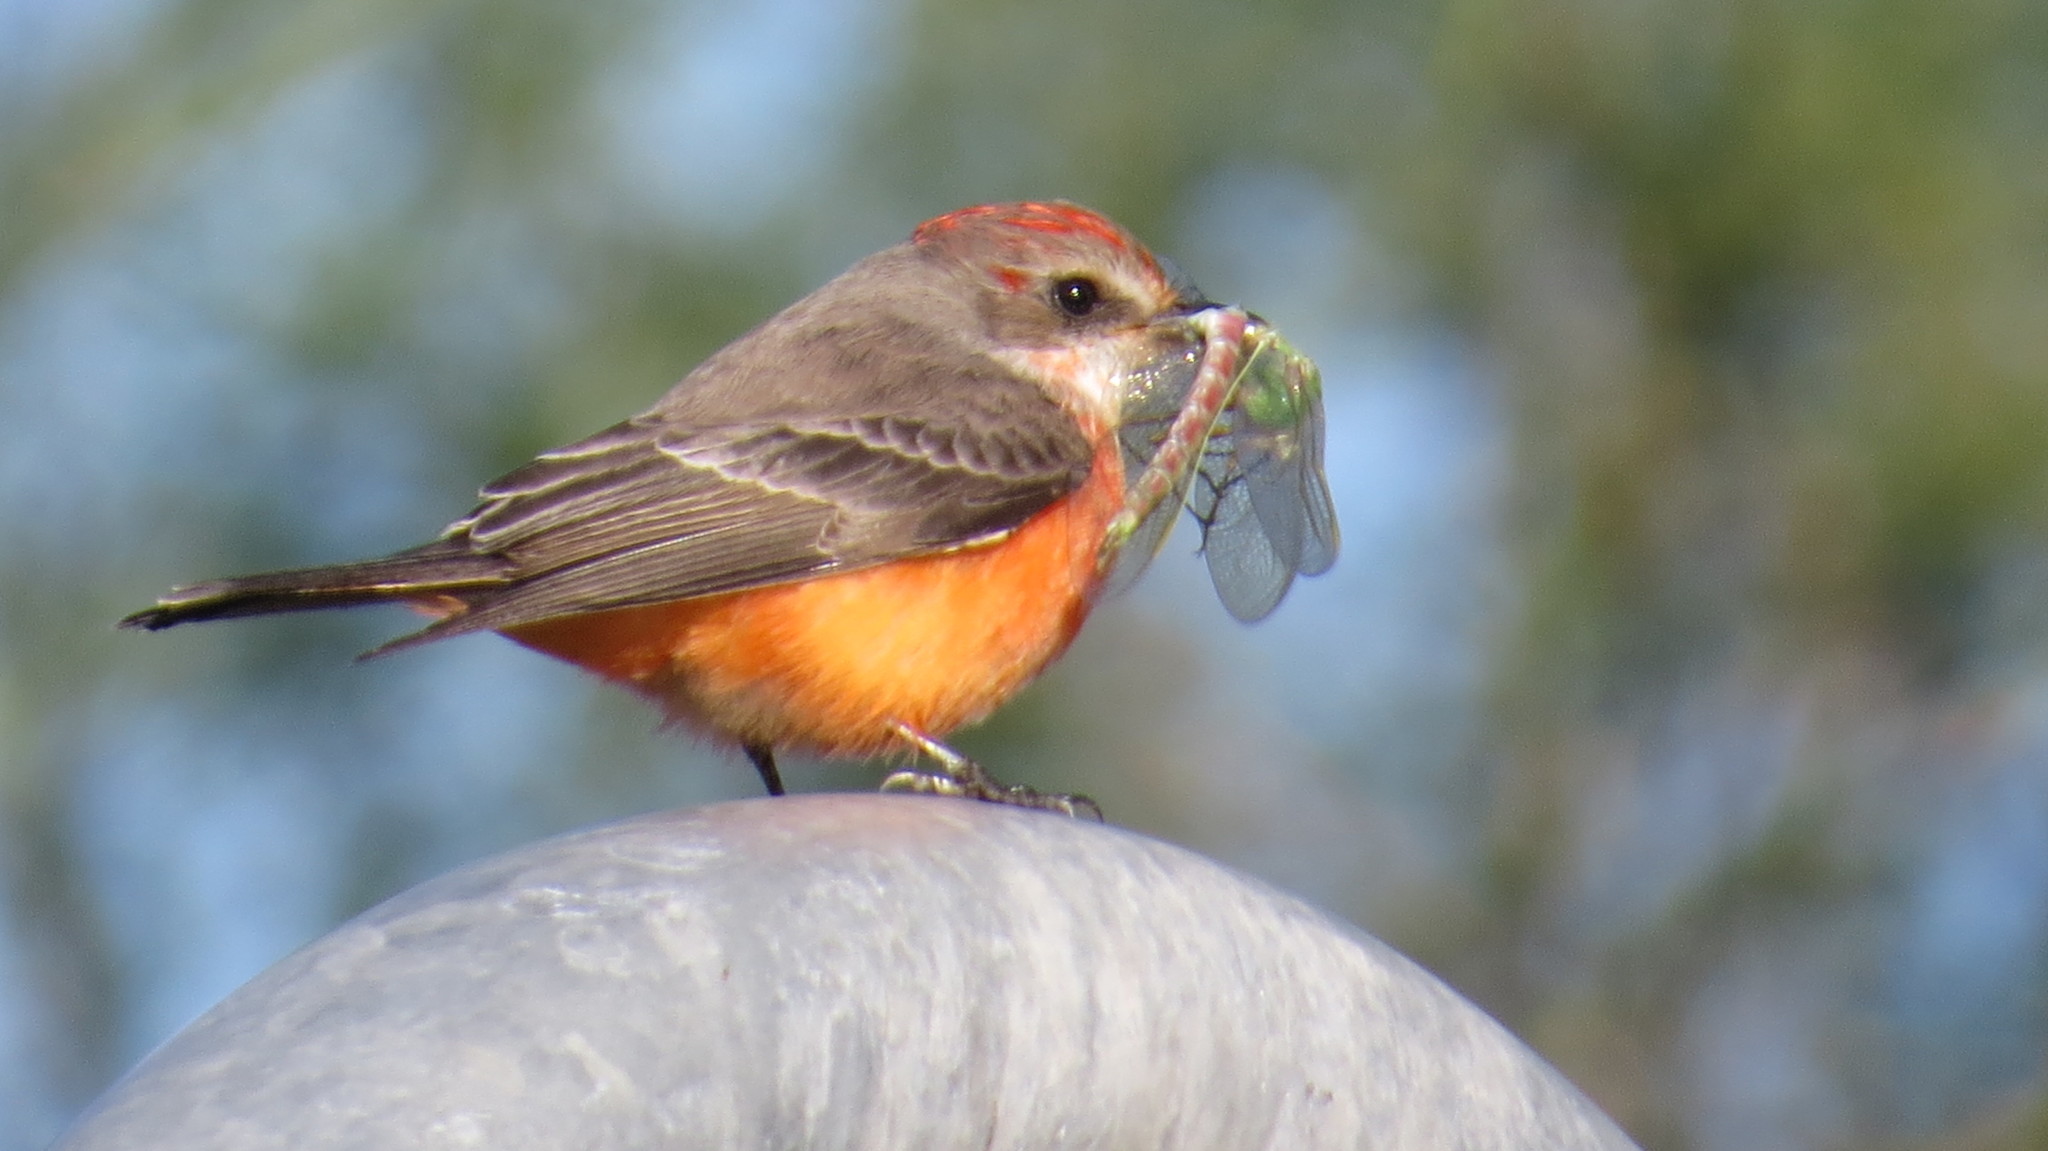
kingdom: Animalia
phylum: Chordata
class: Aves
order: Passeriformes
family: Tyrannidae
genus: Pyrocephalus
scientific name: Pyrocephalus rubinus
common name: Vermilion flycatcher
